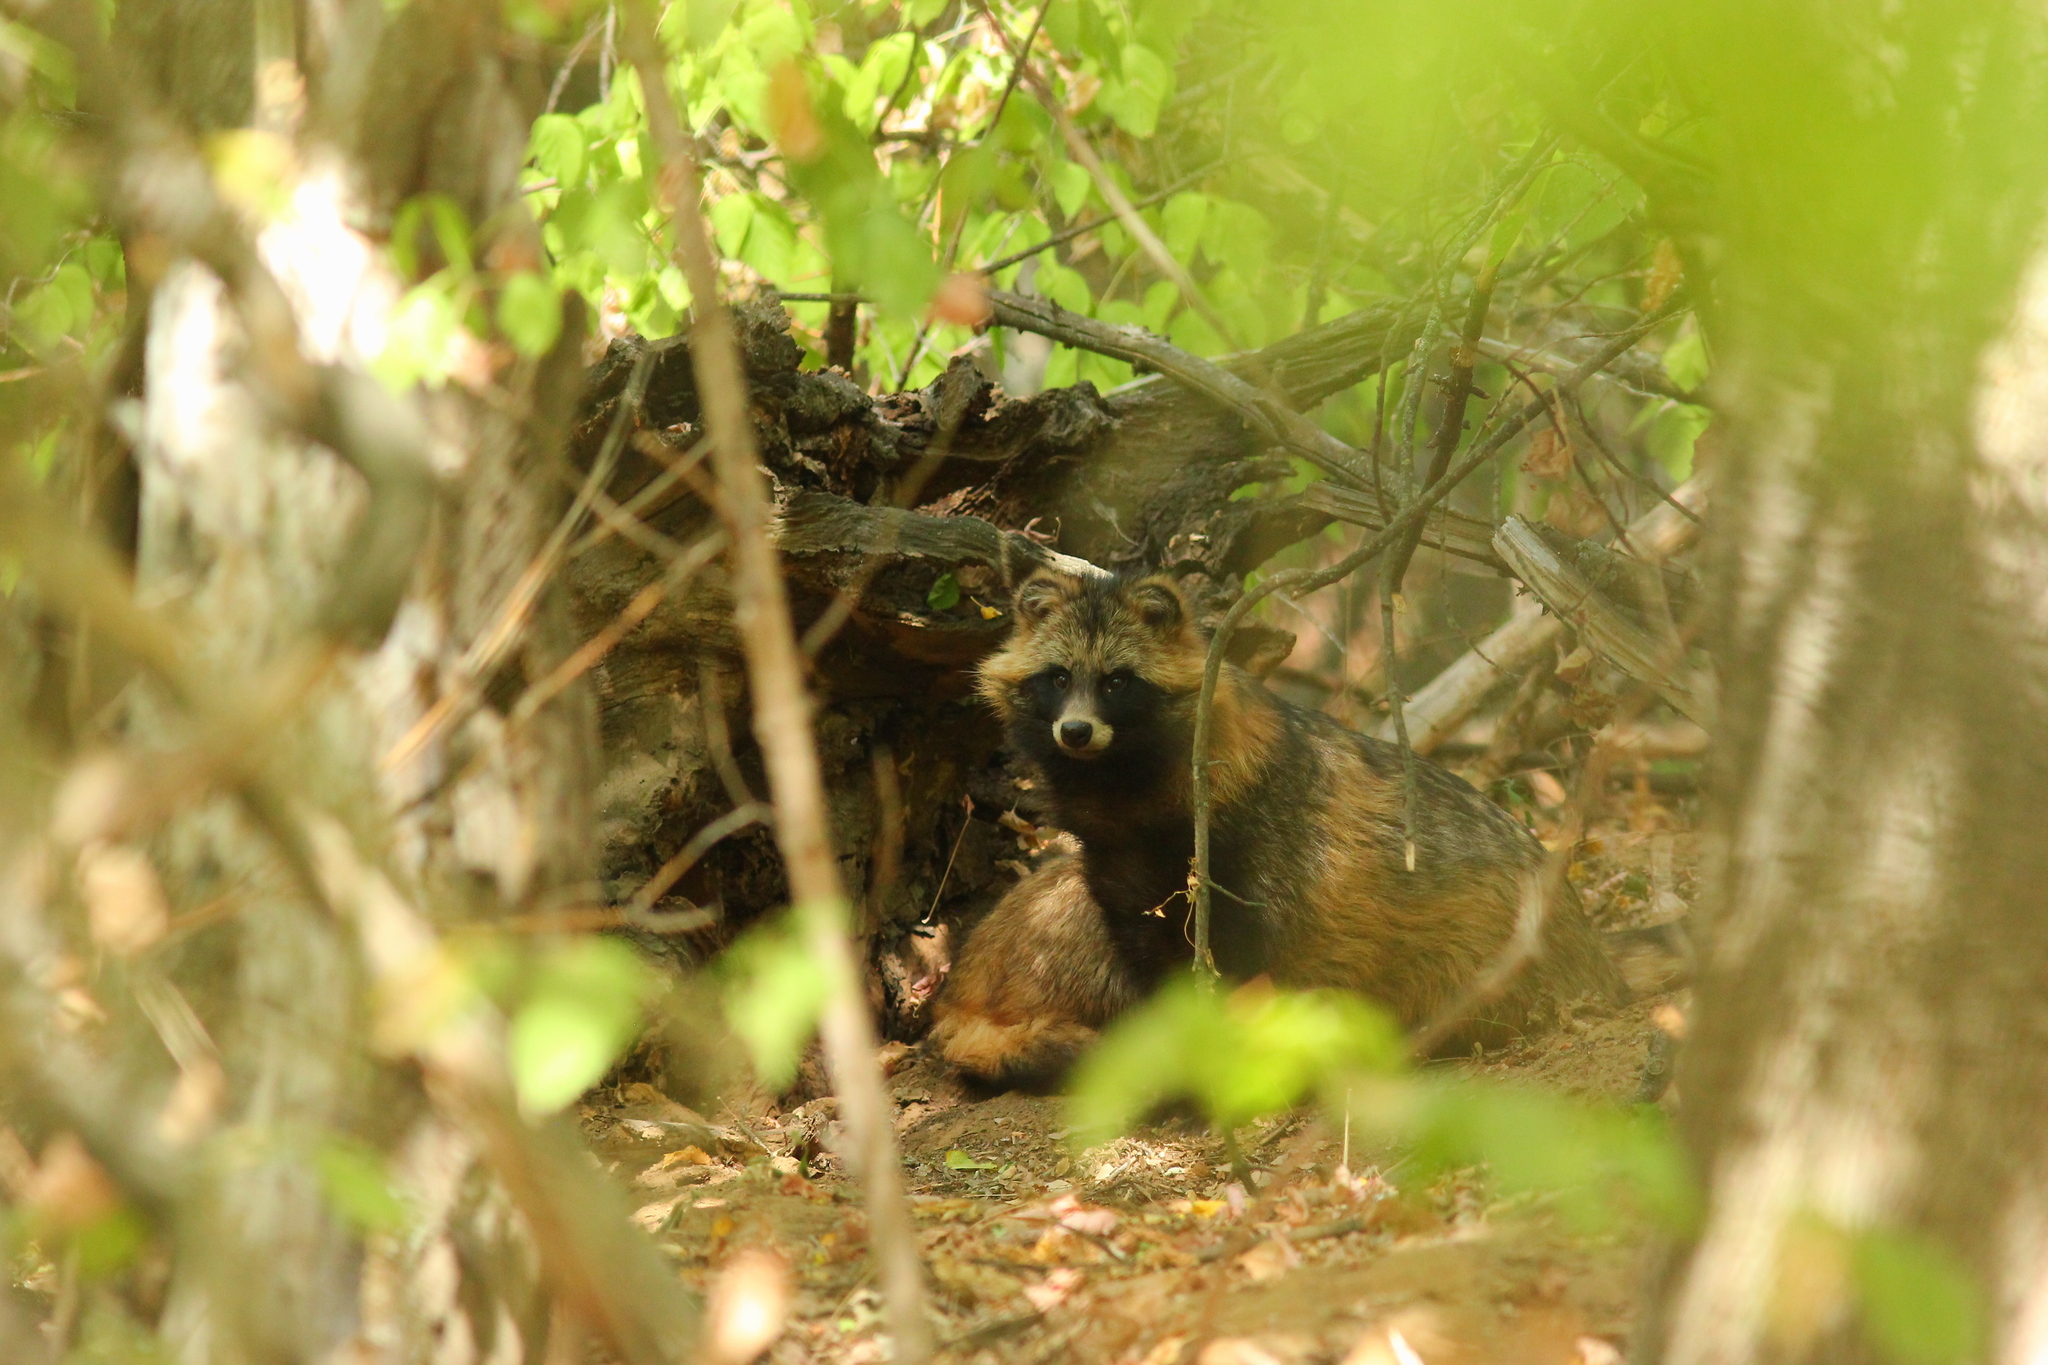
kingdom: Animalia
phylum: Chordata
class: Mammalia
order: Carnivora
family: Canidae
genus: Nyctereutes
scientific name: Nyctereutes procyonoides
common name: Raccoon dog
